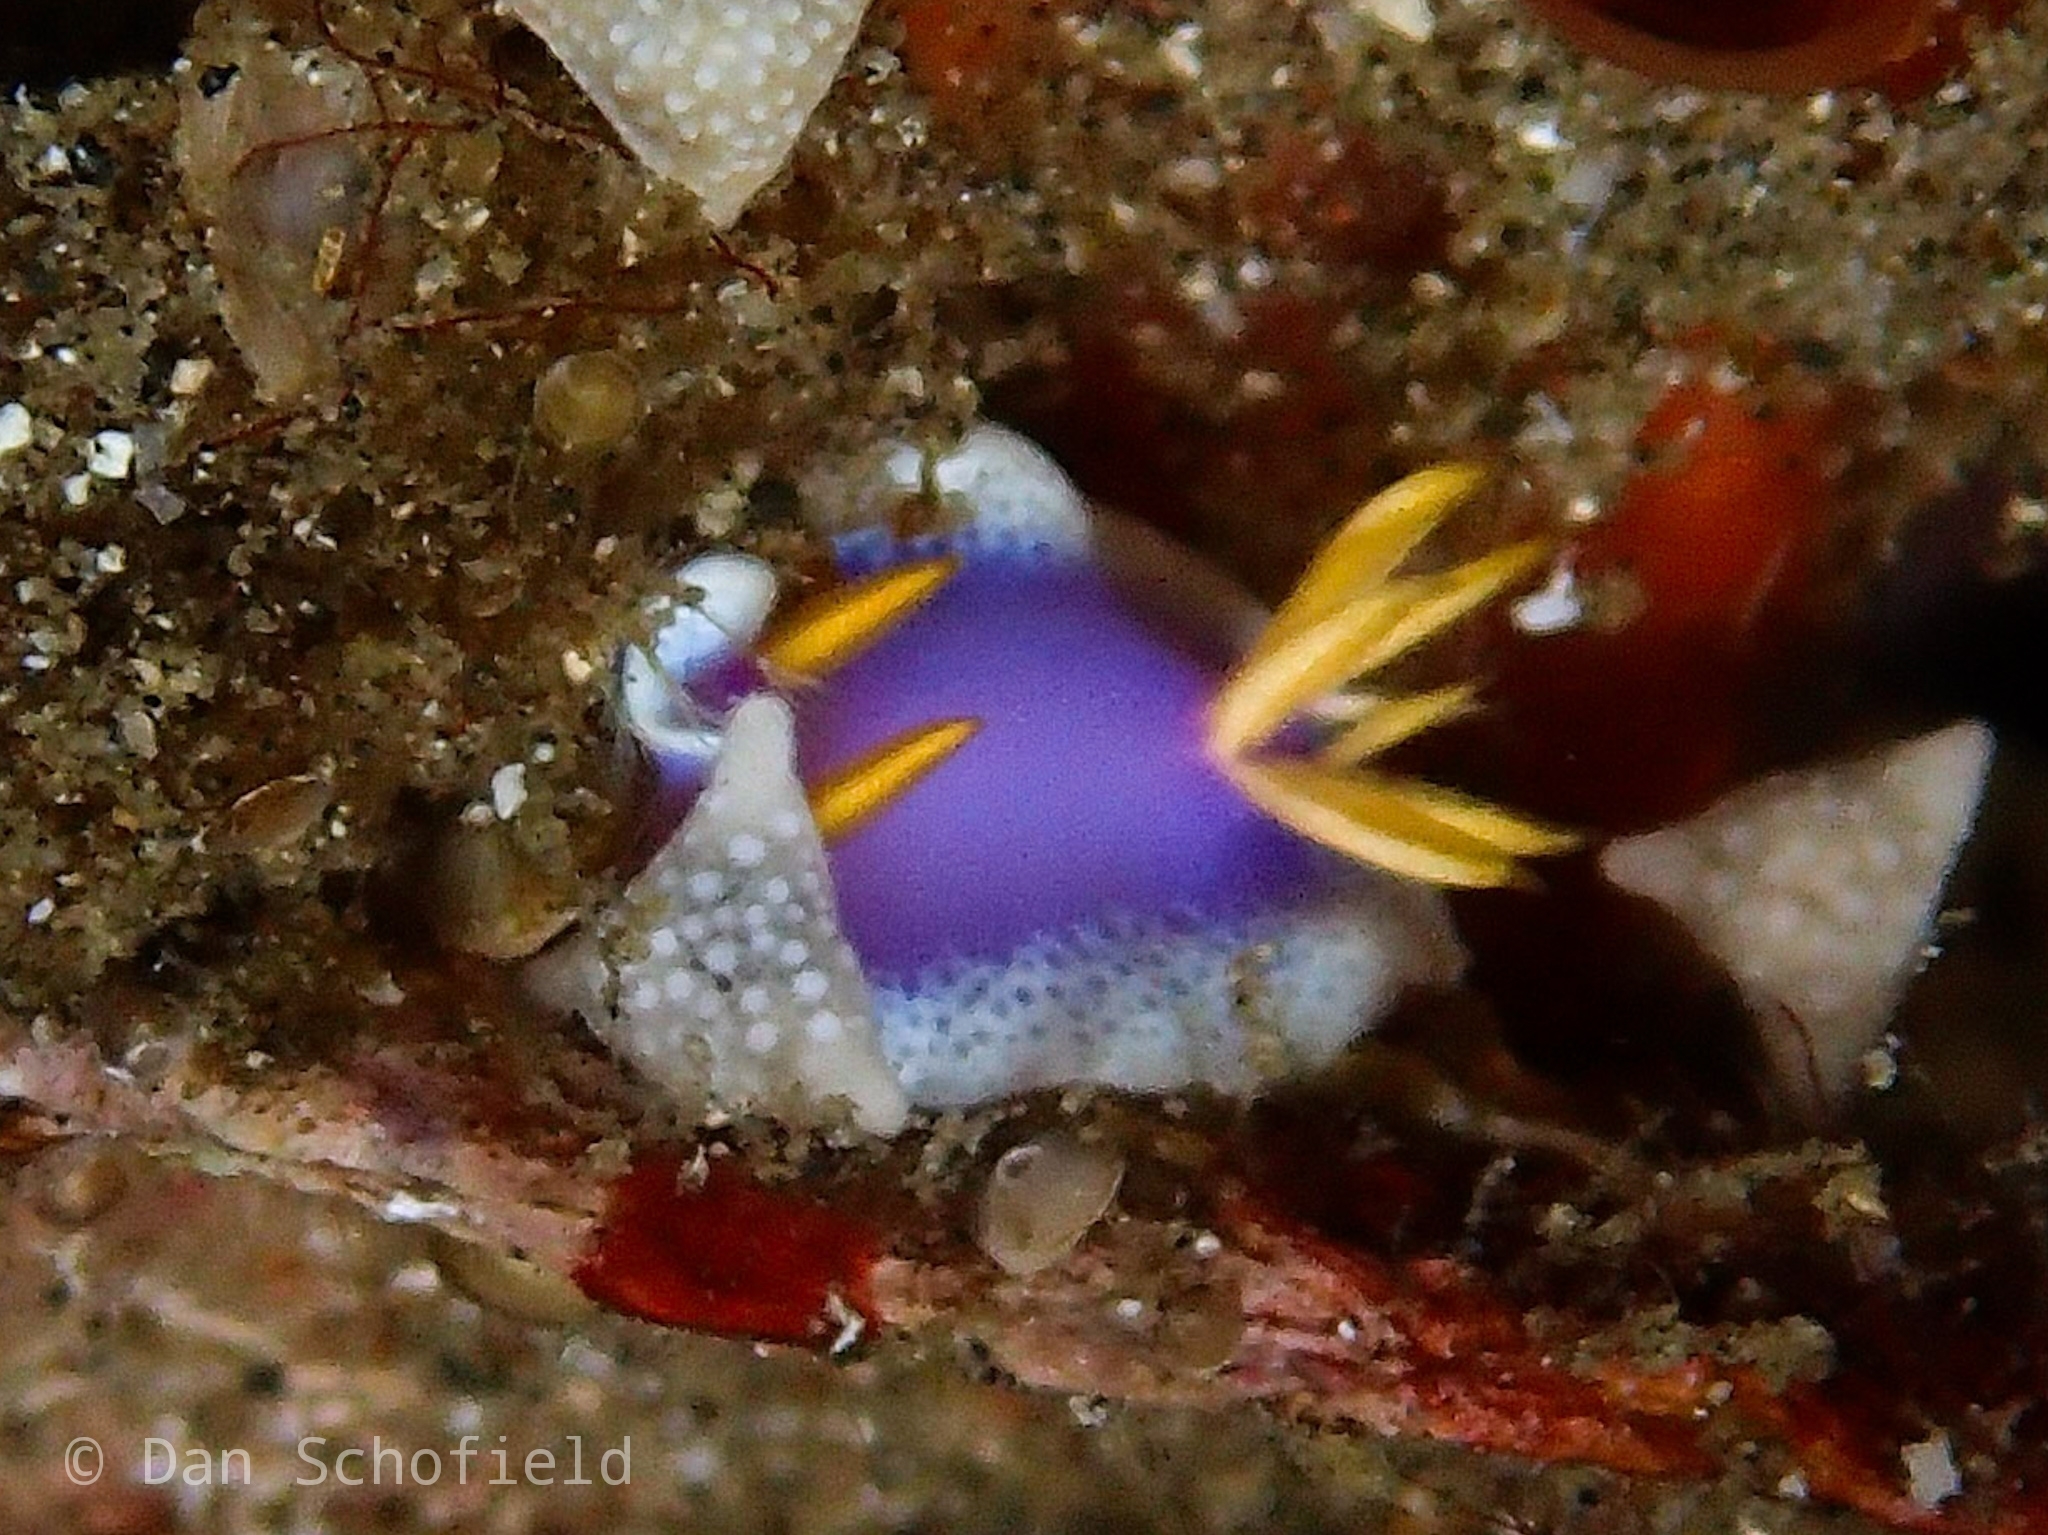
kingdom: Animalia
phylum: Mollusca
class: Gastropoda
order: Nudibranchia
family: Chromodorididae
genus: Hypselodoris
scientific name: Hypselodoris apolegma
